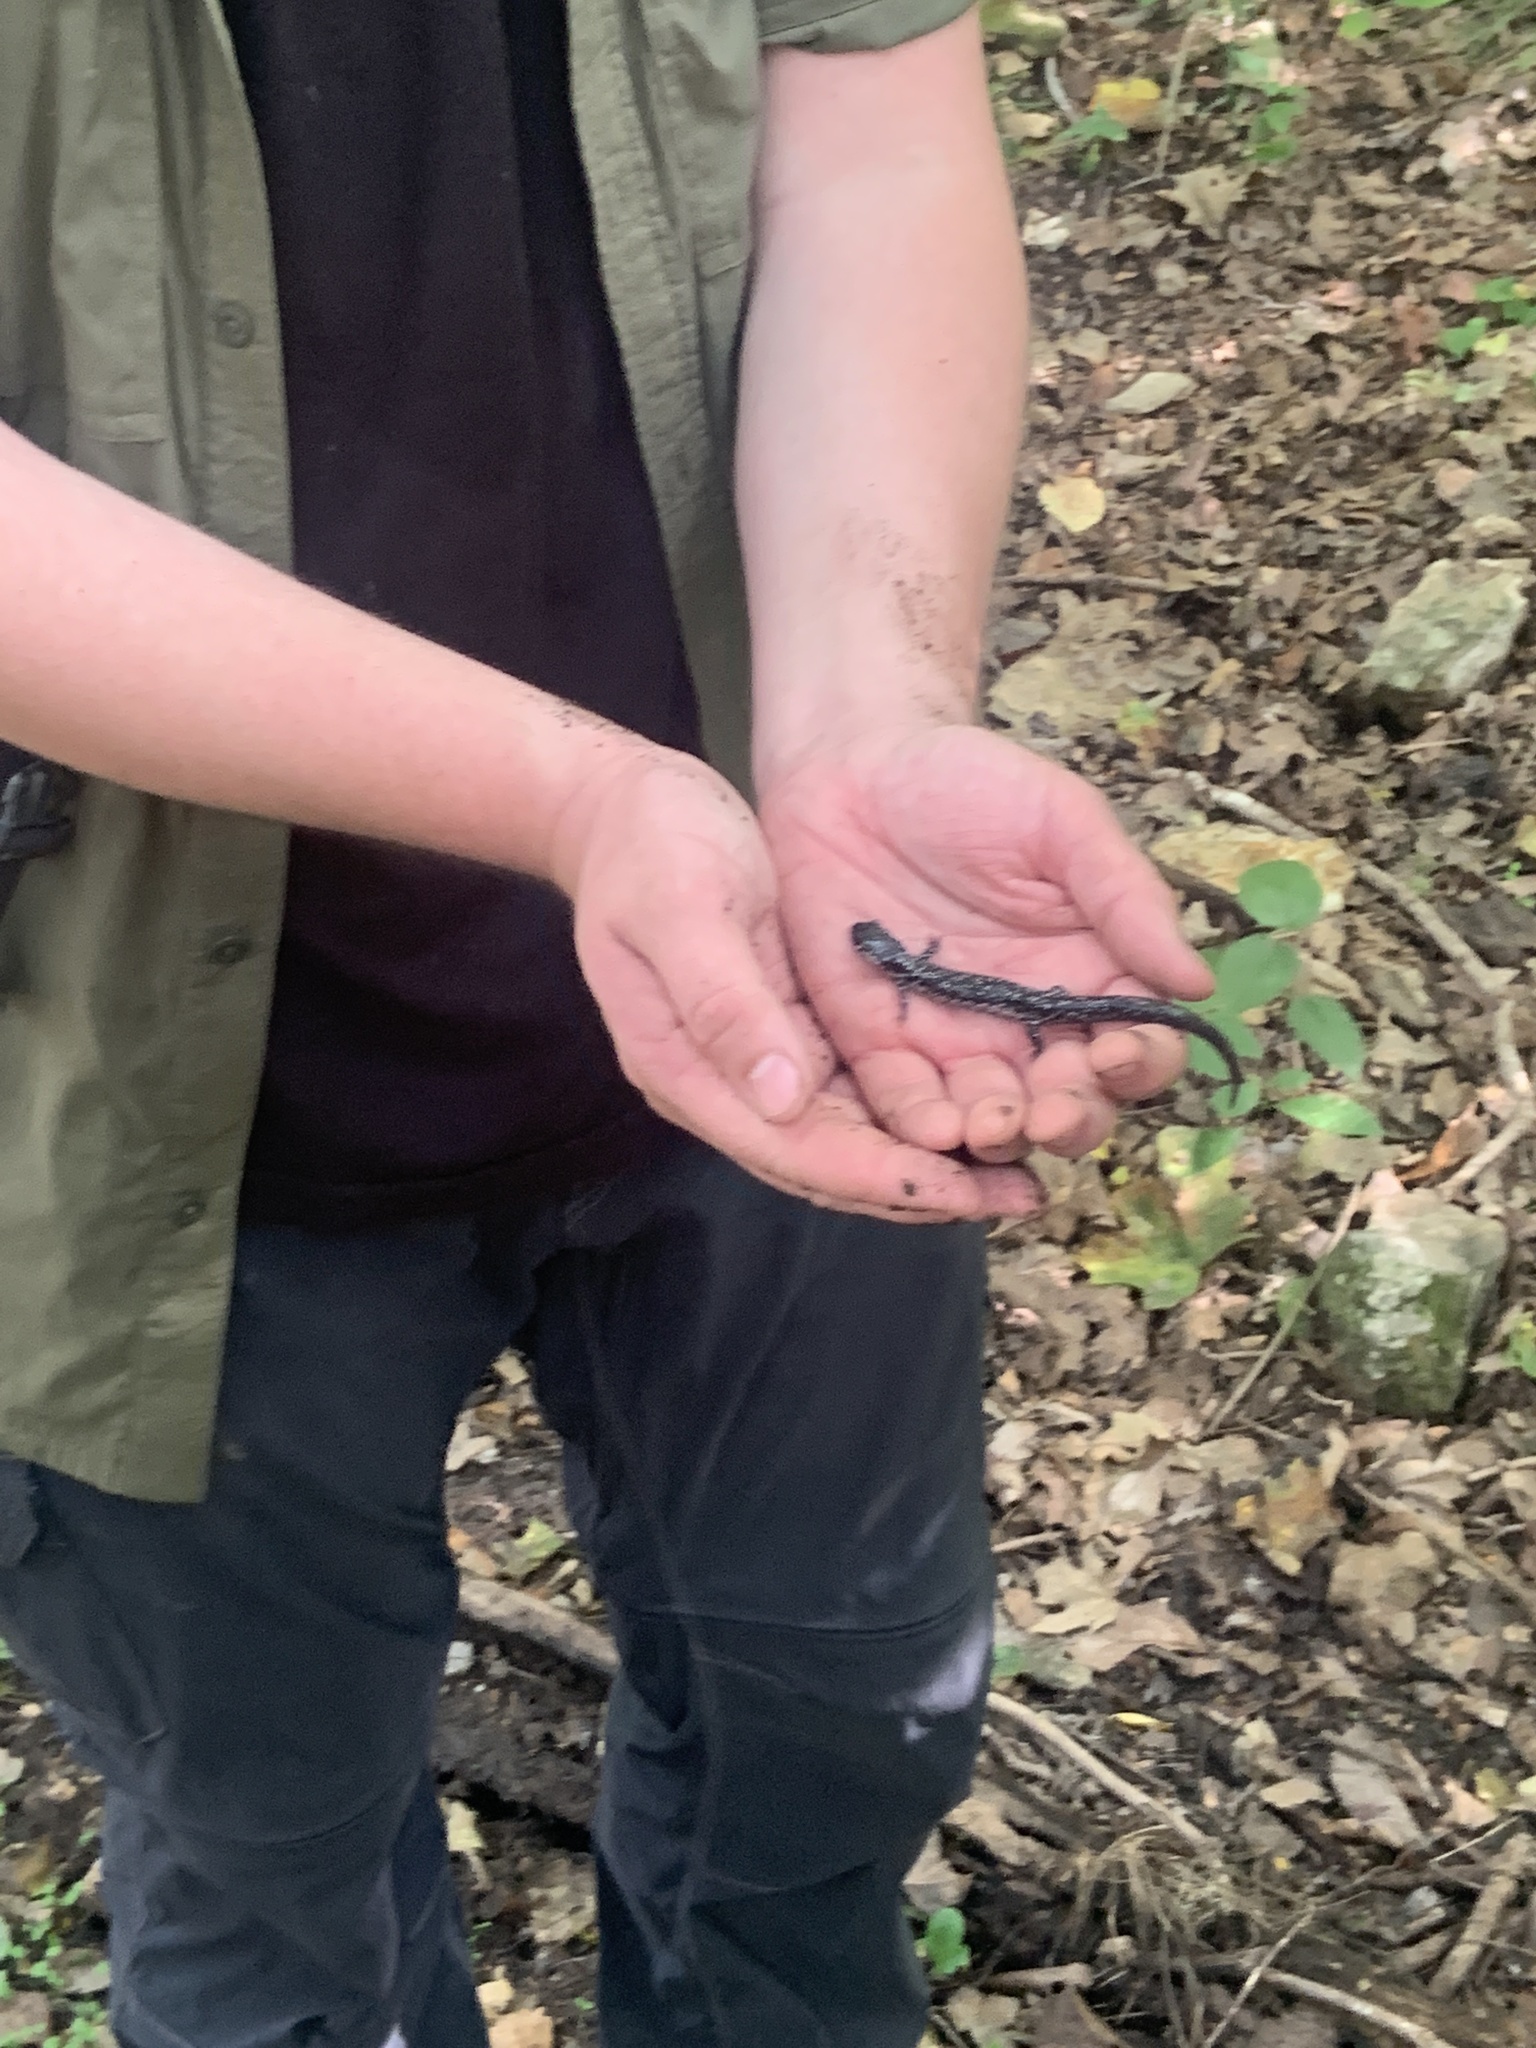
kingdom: Animalia
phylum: Chordata
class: Amphibia
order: Caudata
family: Plethodontidae
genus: Plethodon
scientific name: Plethodon glutinosus
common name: Northern slimy salamander
